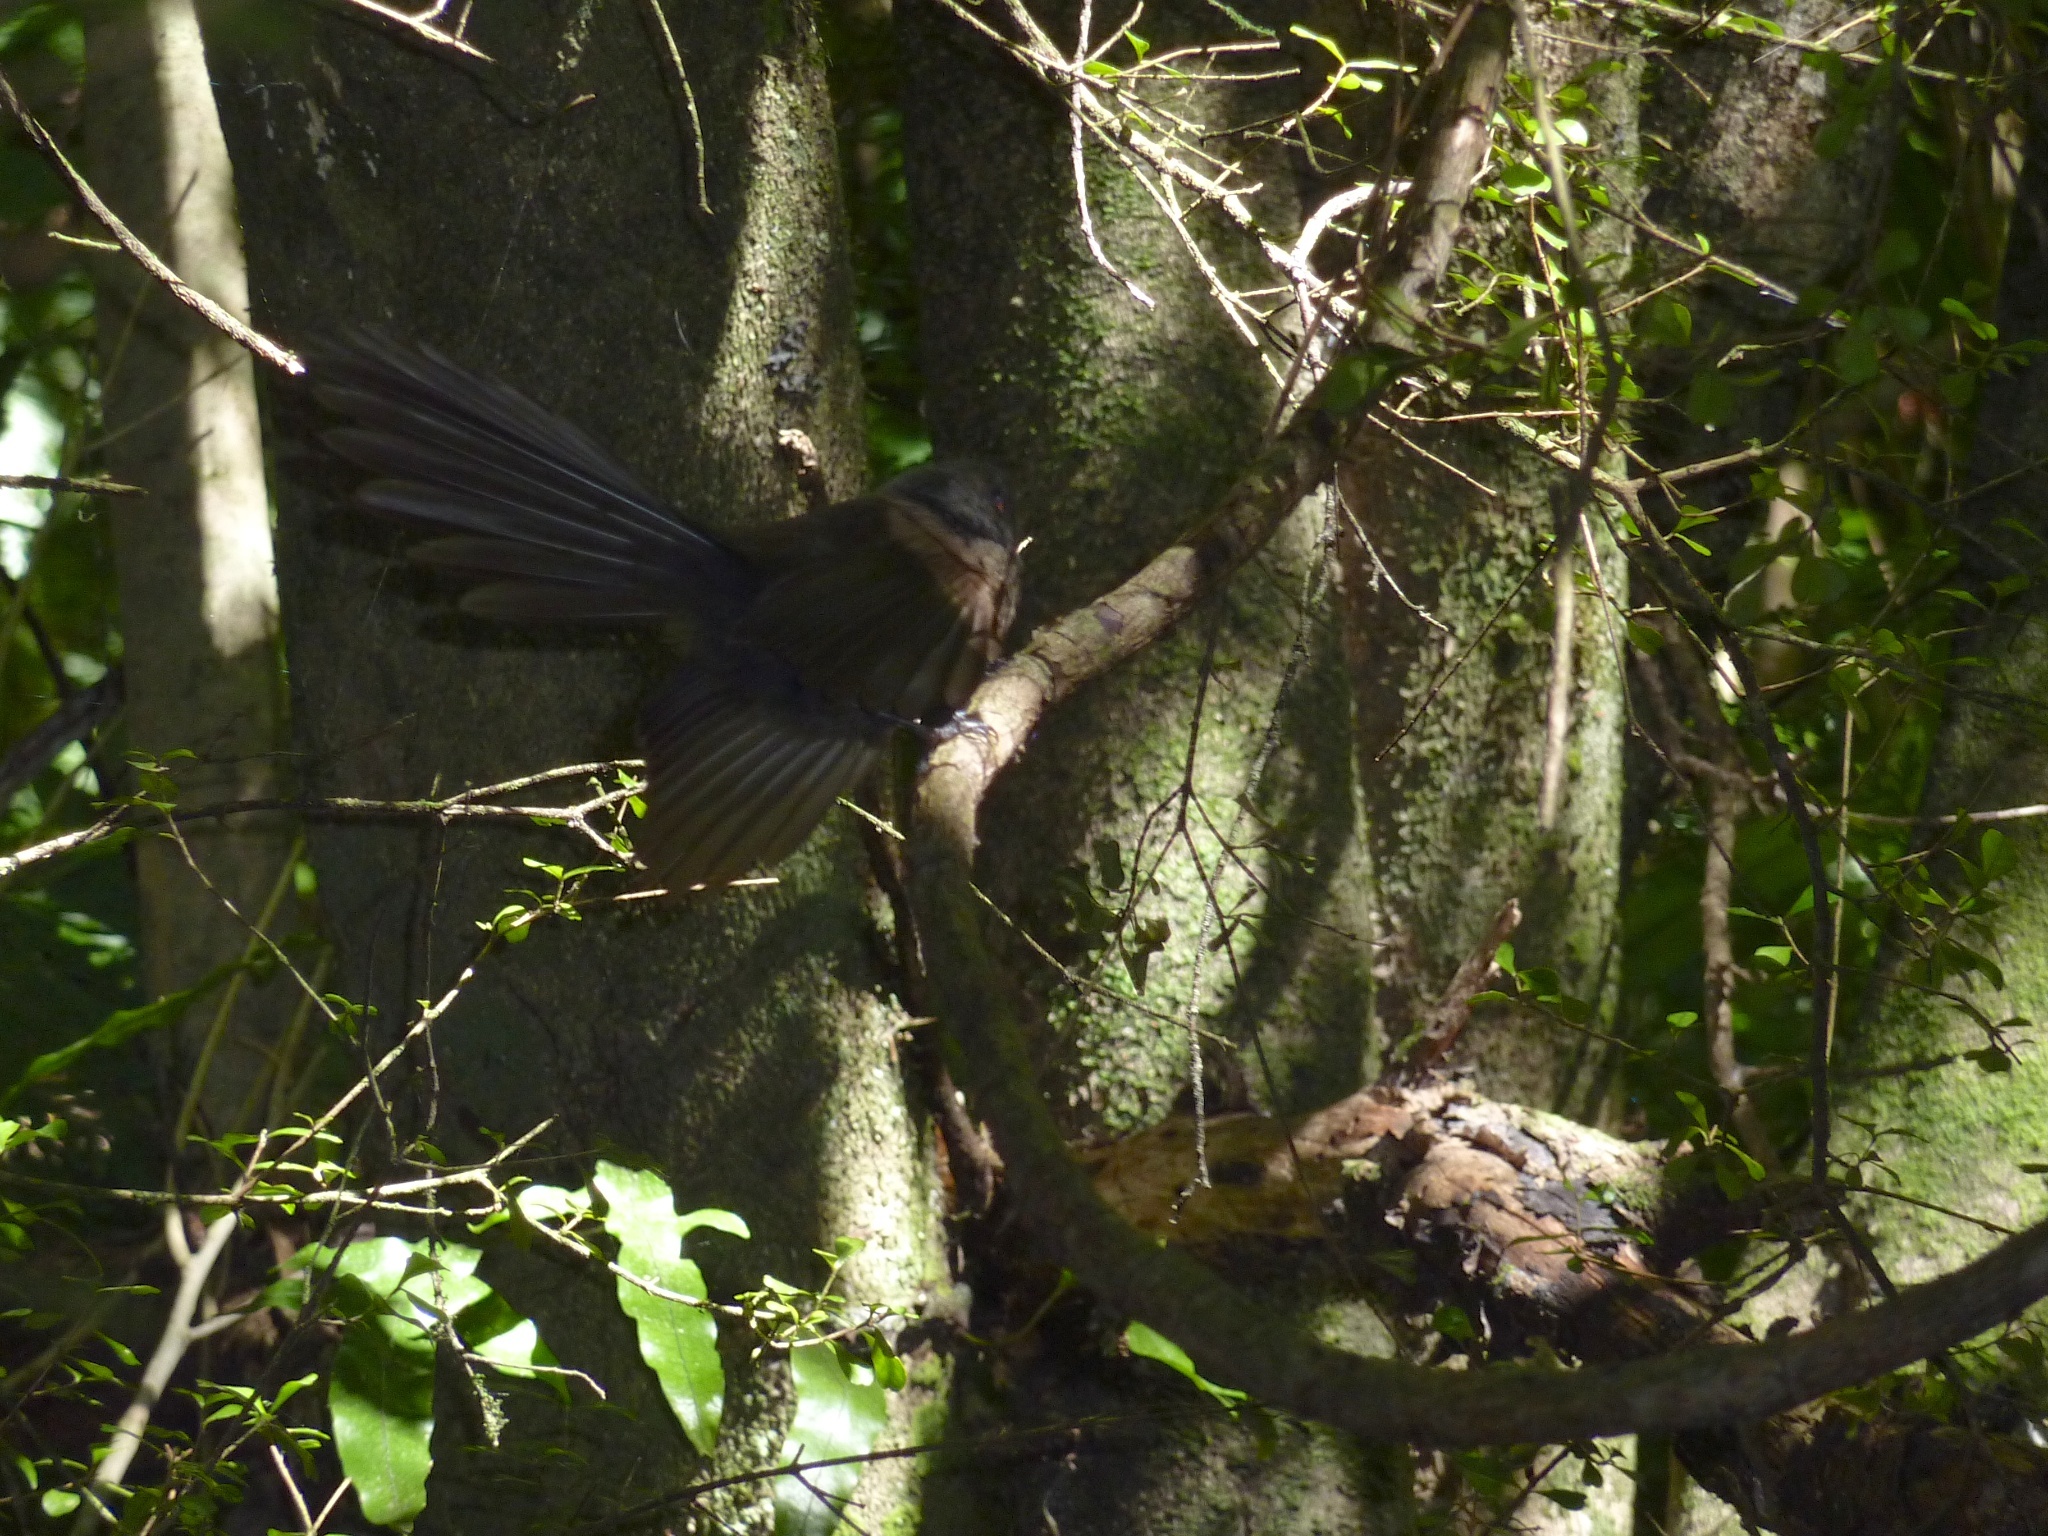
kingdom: Animalia
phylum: Chordata
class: Aves
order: Passeriformes
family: Rhipiduridae
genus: Rhipidura
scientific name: Rhipidura fuliginosa
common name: New zealand fantail
